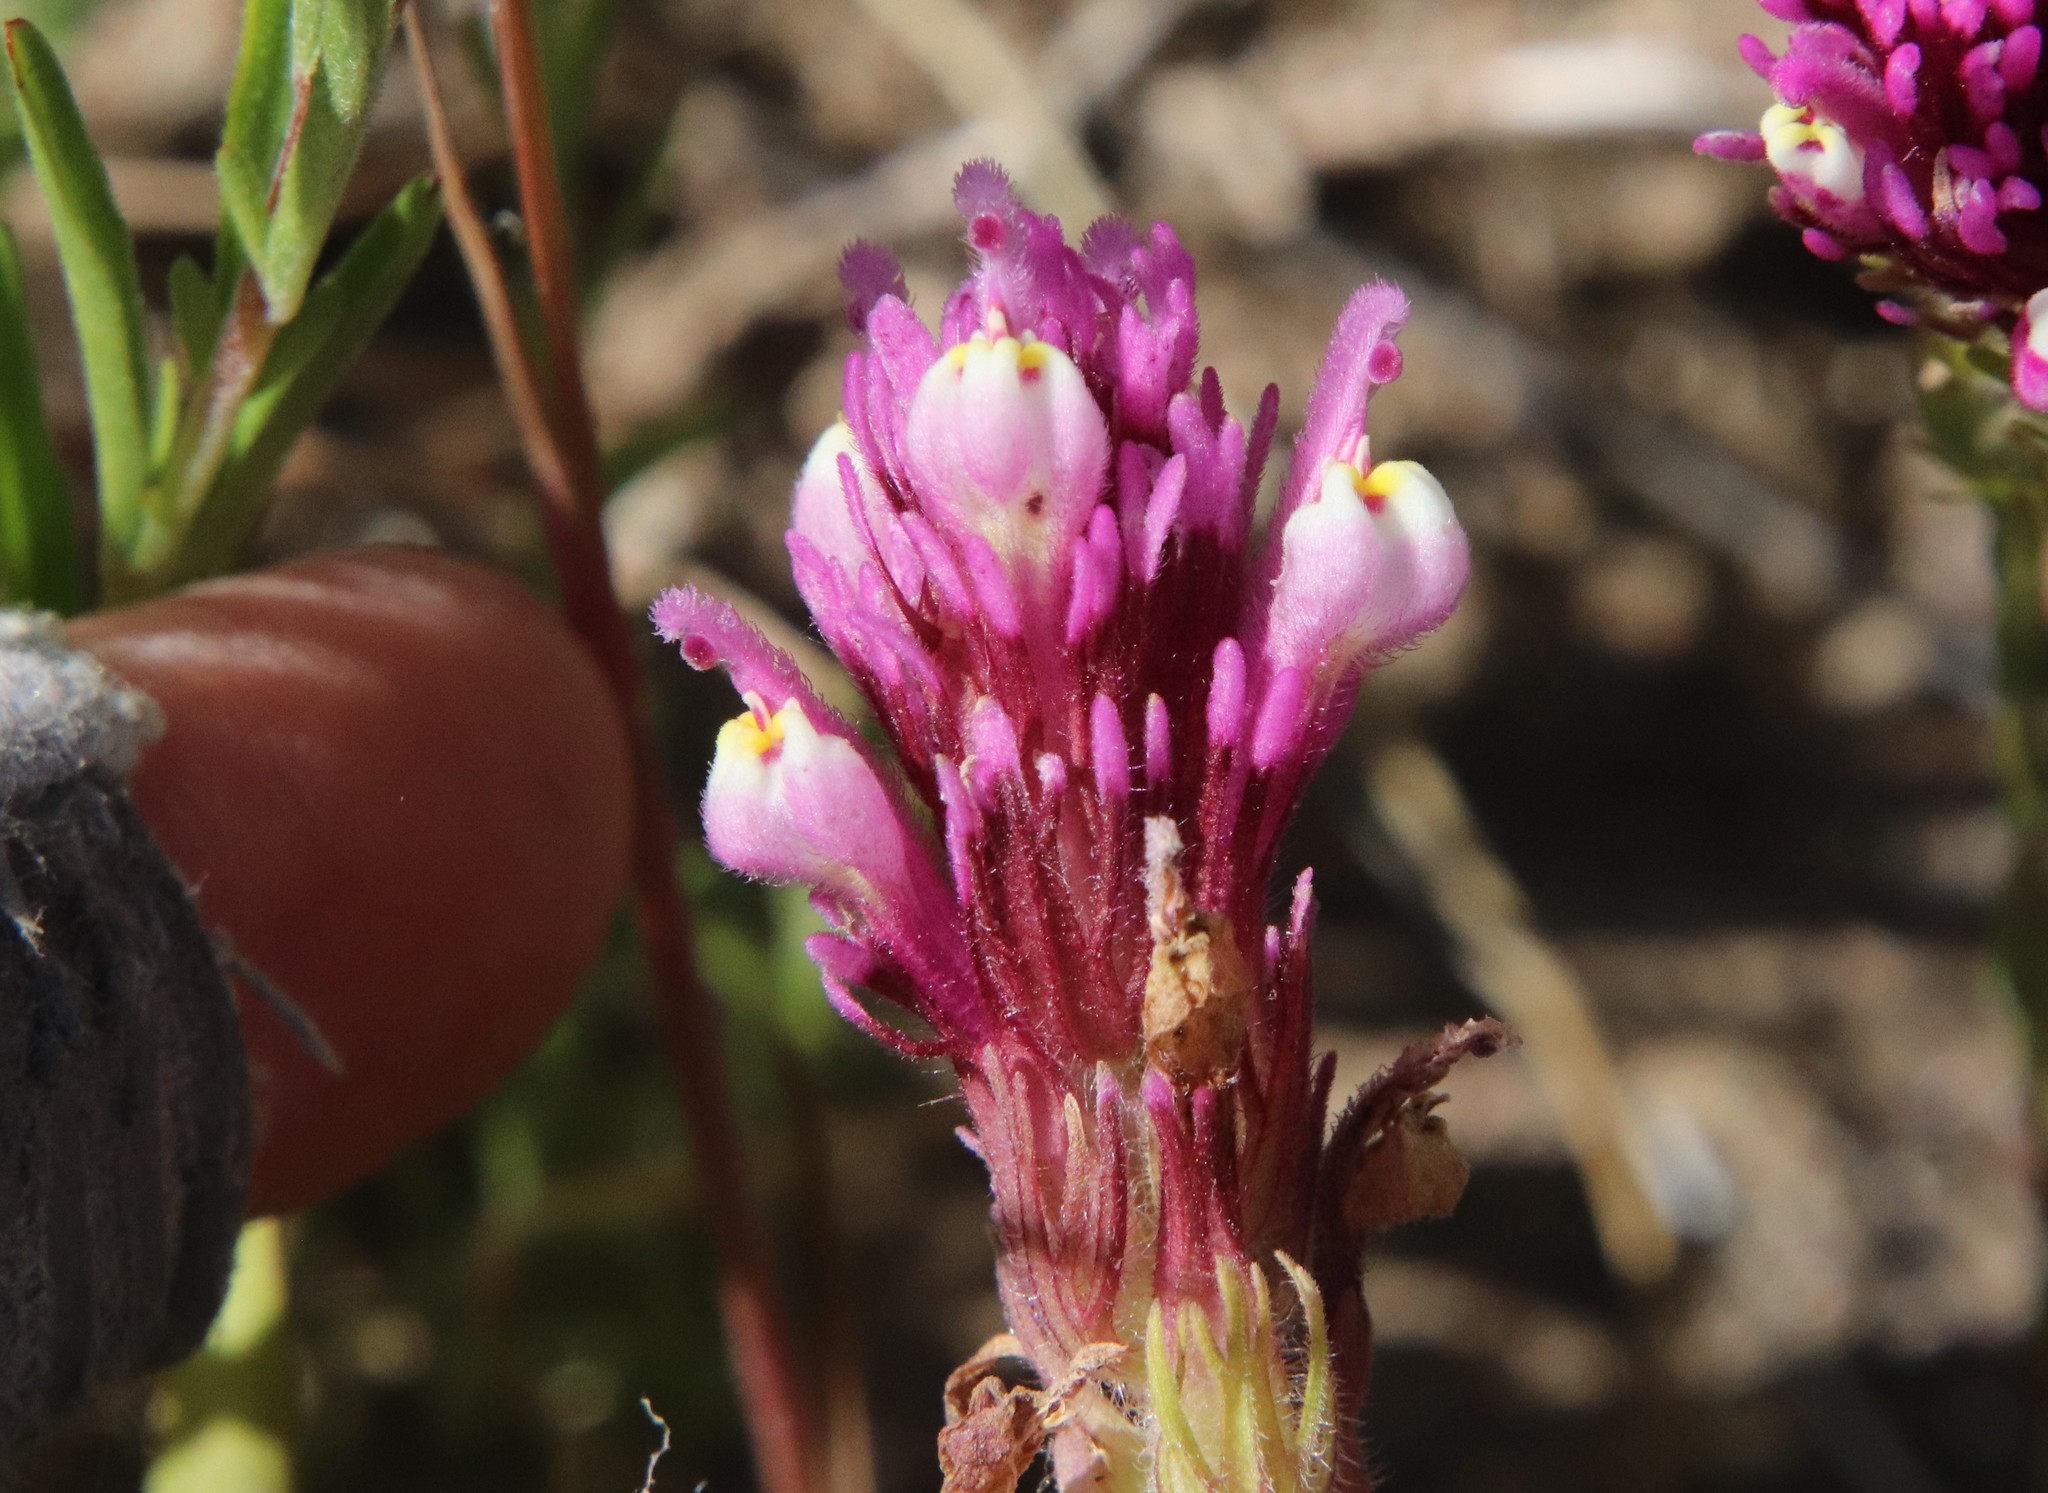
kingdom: Plantae
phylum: Tracheophyta
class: Magnoliopsida
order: Lamiales
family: Orobanchaceae
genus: Castilleja
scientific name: Castilleja exserta
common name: Purple owl-clover
